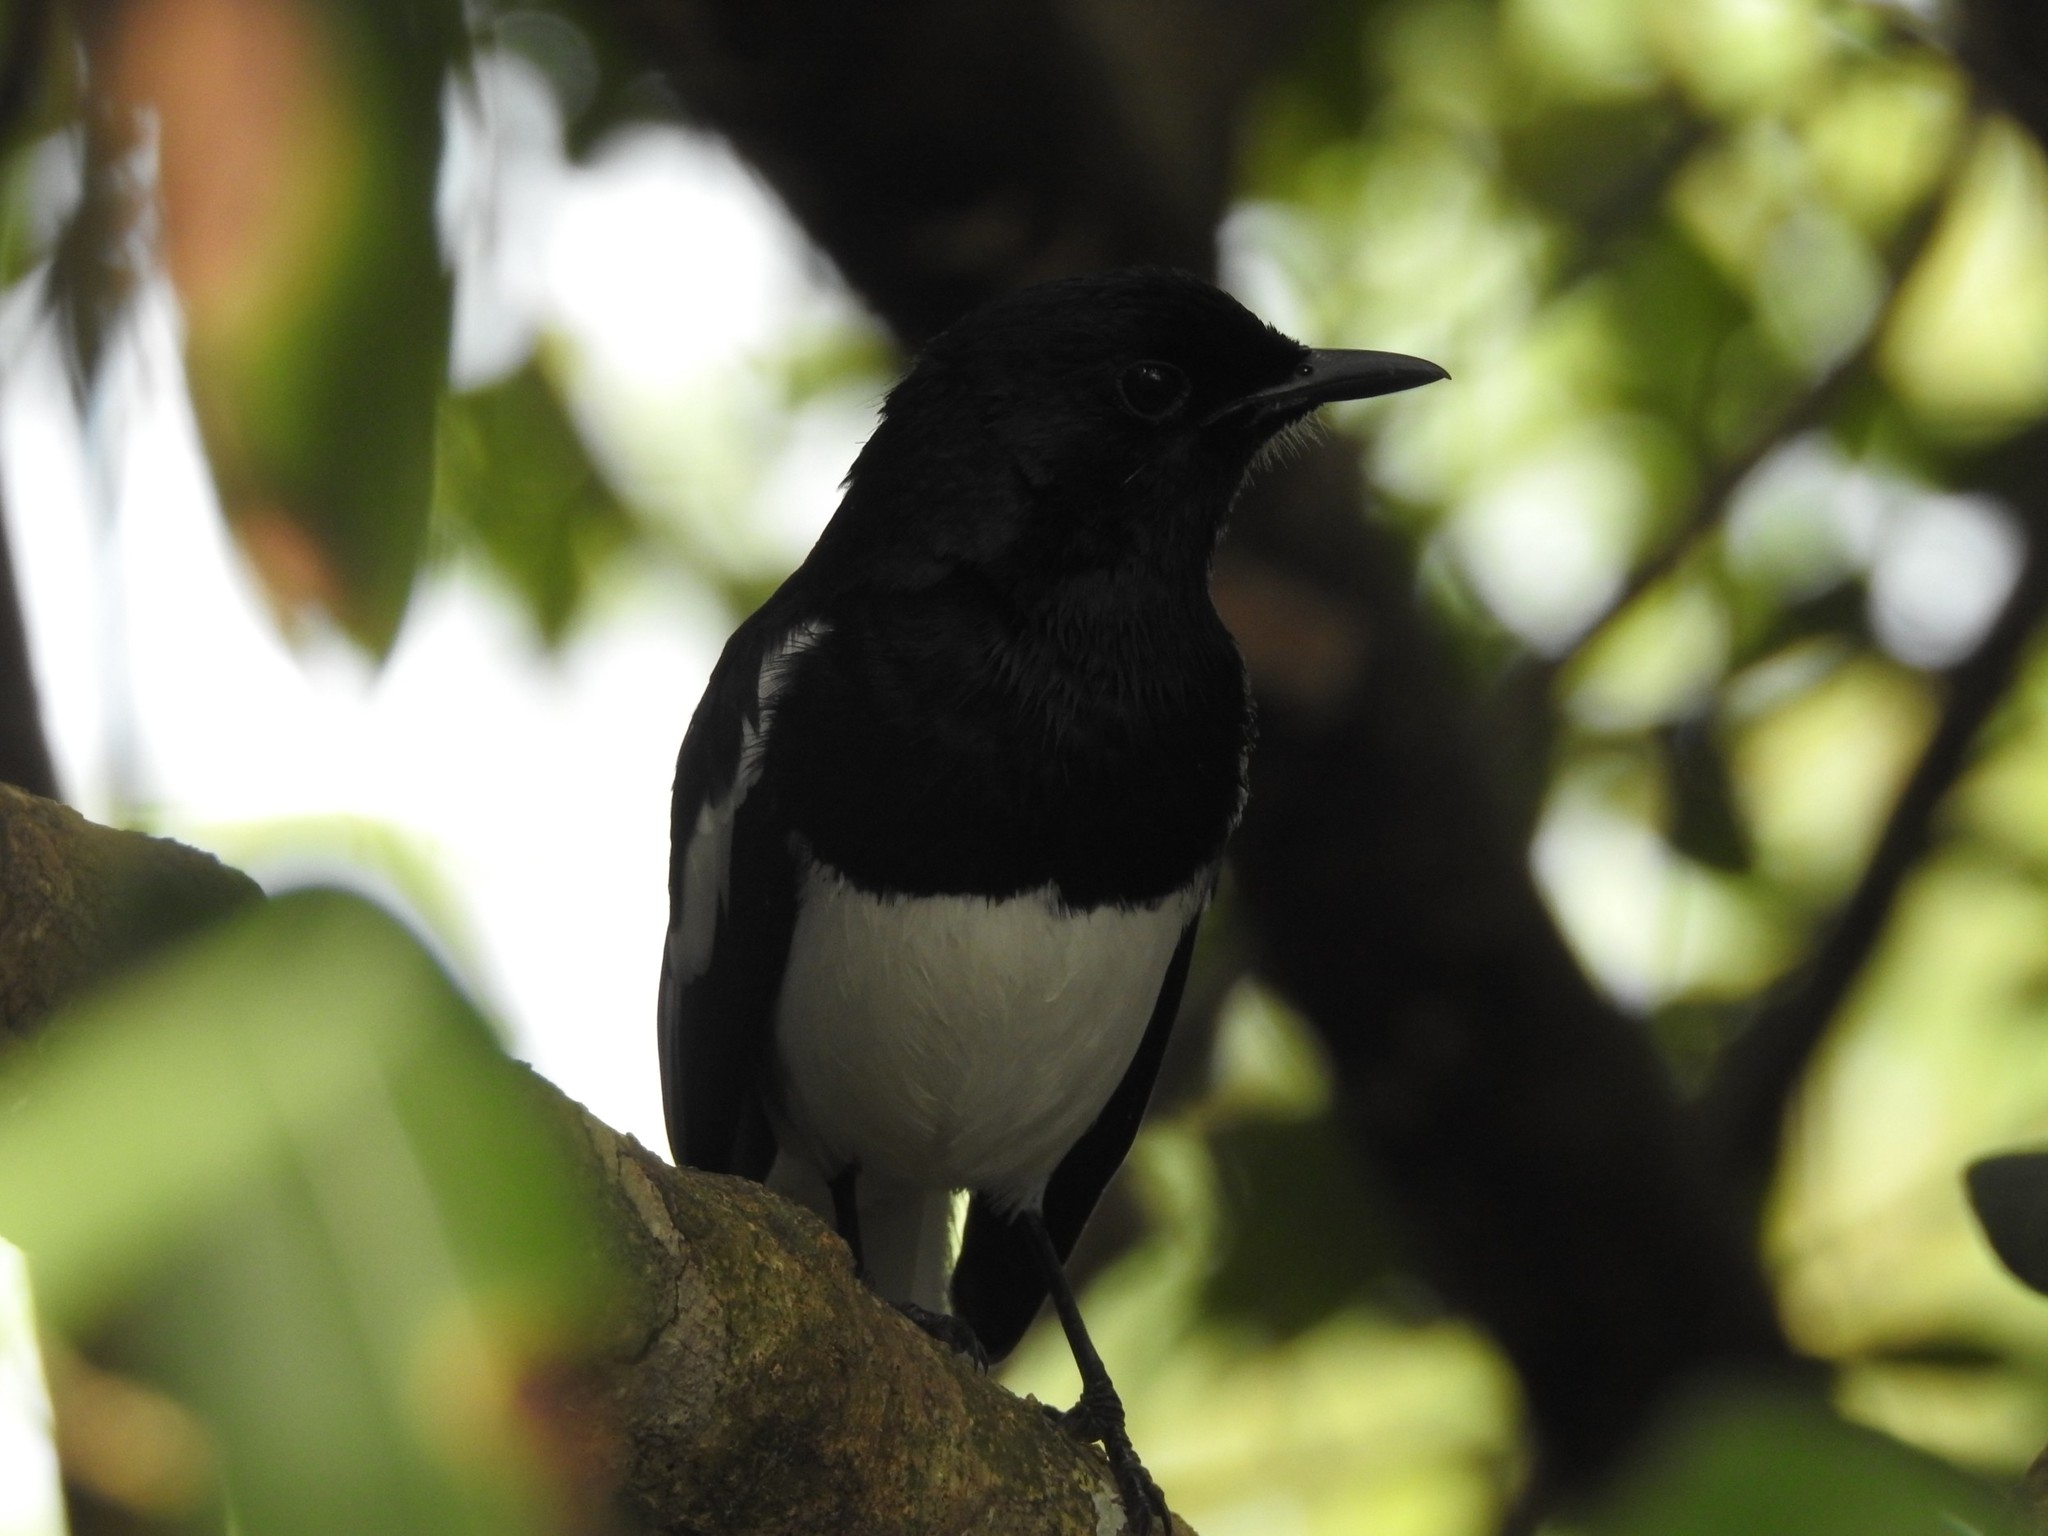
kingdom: Animalia
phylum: Chordata
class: Aves
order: Passeriformes
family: Muscicapidae
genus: Copsychus
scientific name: Copsychus saularis
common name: Oriental magpie-robin
